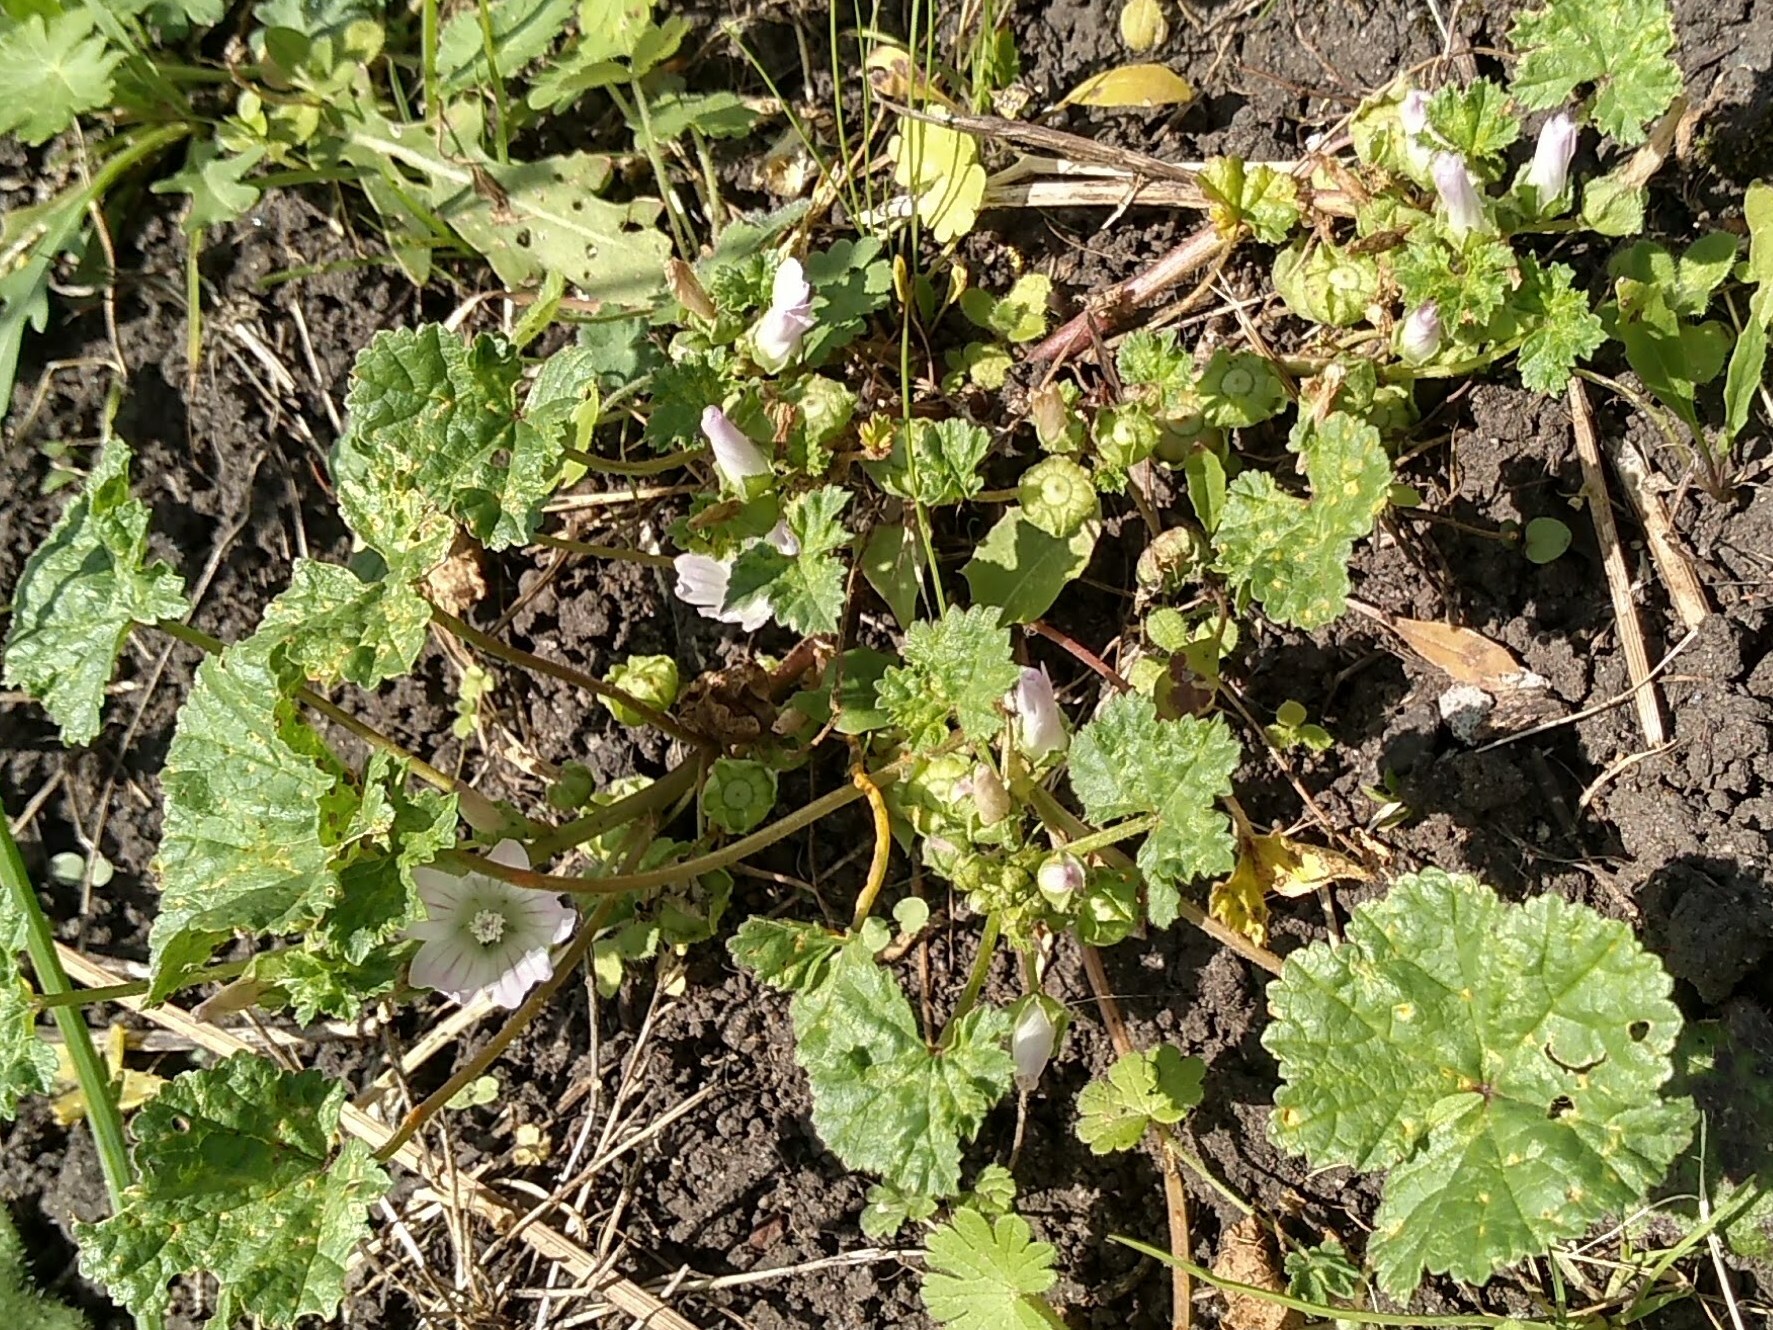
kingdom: Plantae
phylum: Tracheophyta
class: Magnoliopsida
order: Malvales
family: Malvaceae
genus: Malva
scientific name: Malva neglecta
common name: Common mallow
